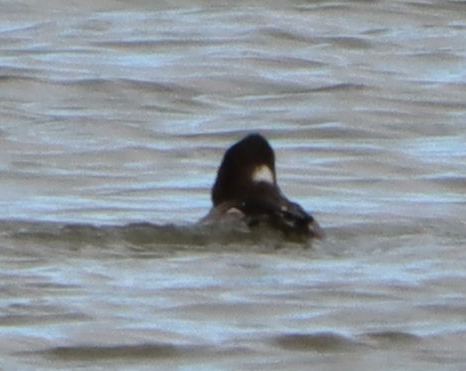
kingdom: Animalia
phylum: Chordata
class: Aves
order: Anseriformes
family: Anatidae
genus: Bucephala
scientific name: Bucephala albeola
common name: Bufflehead
